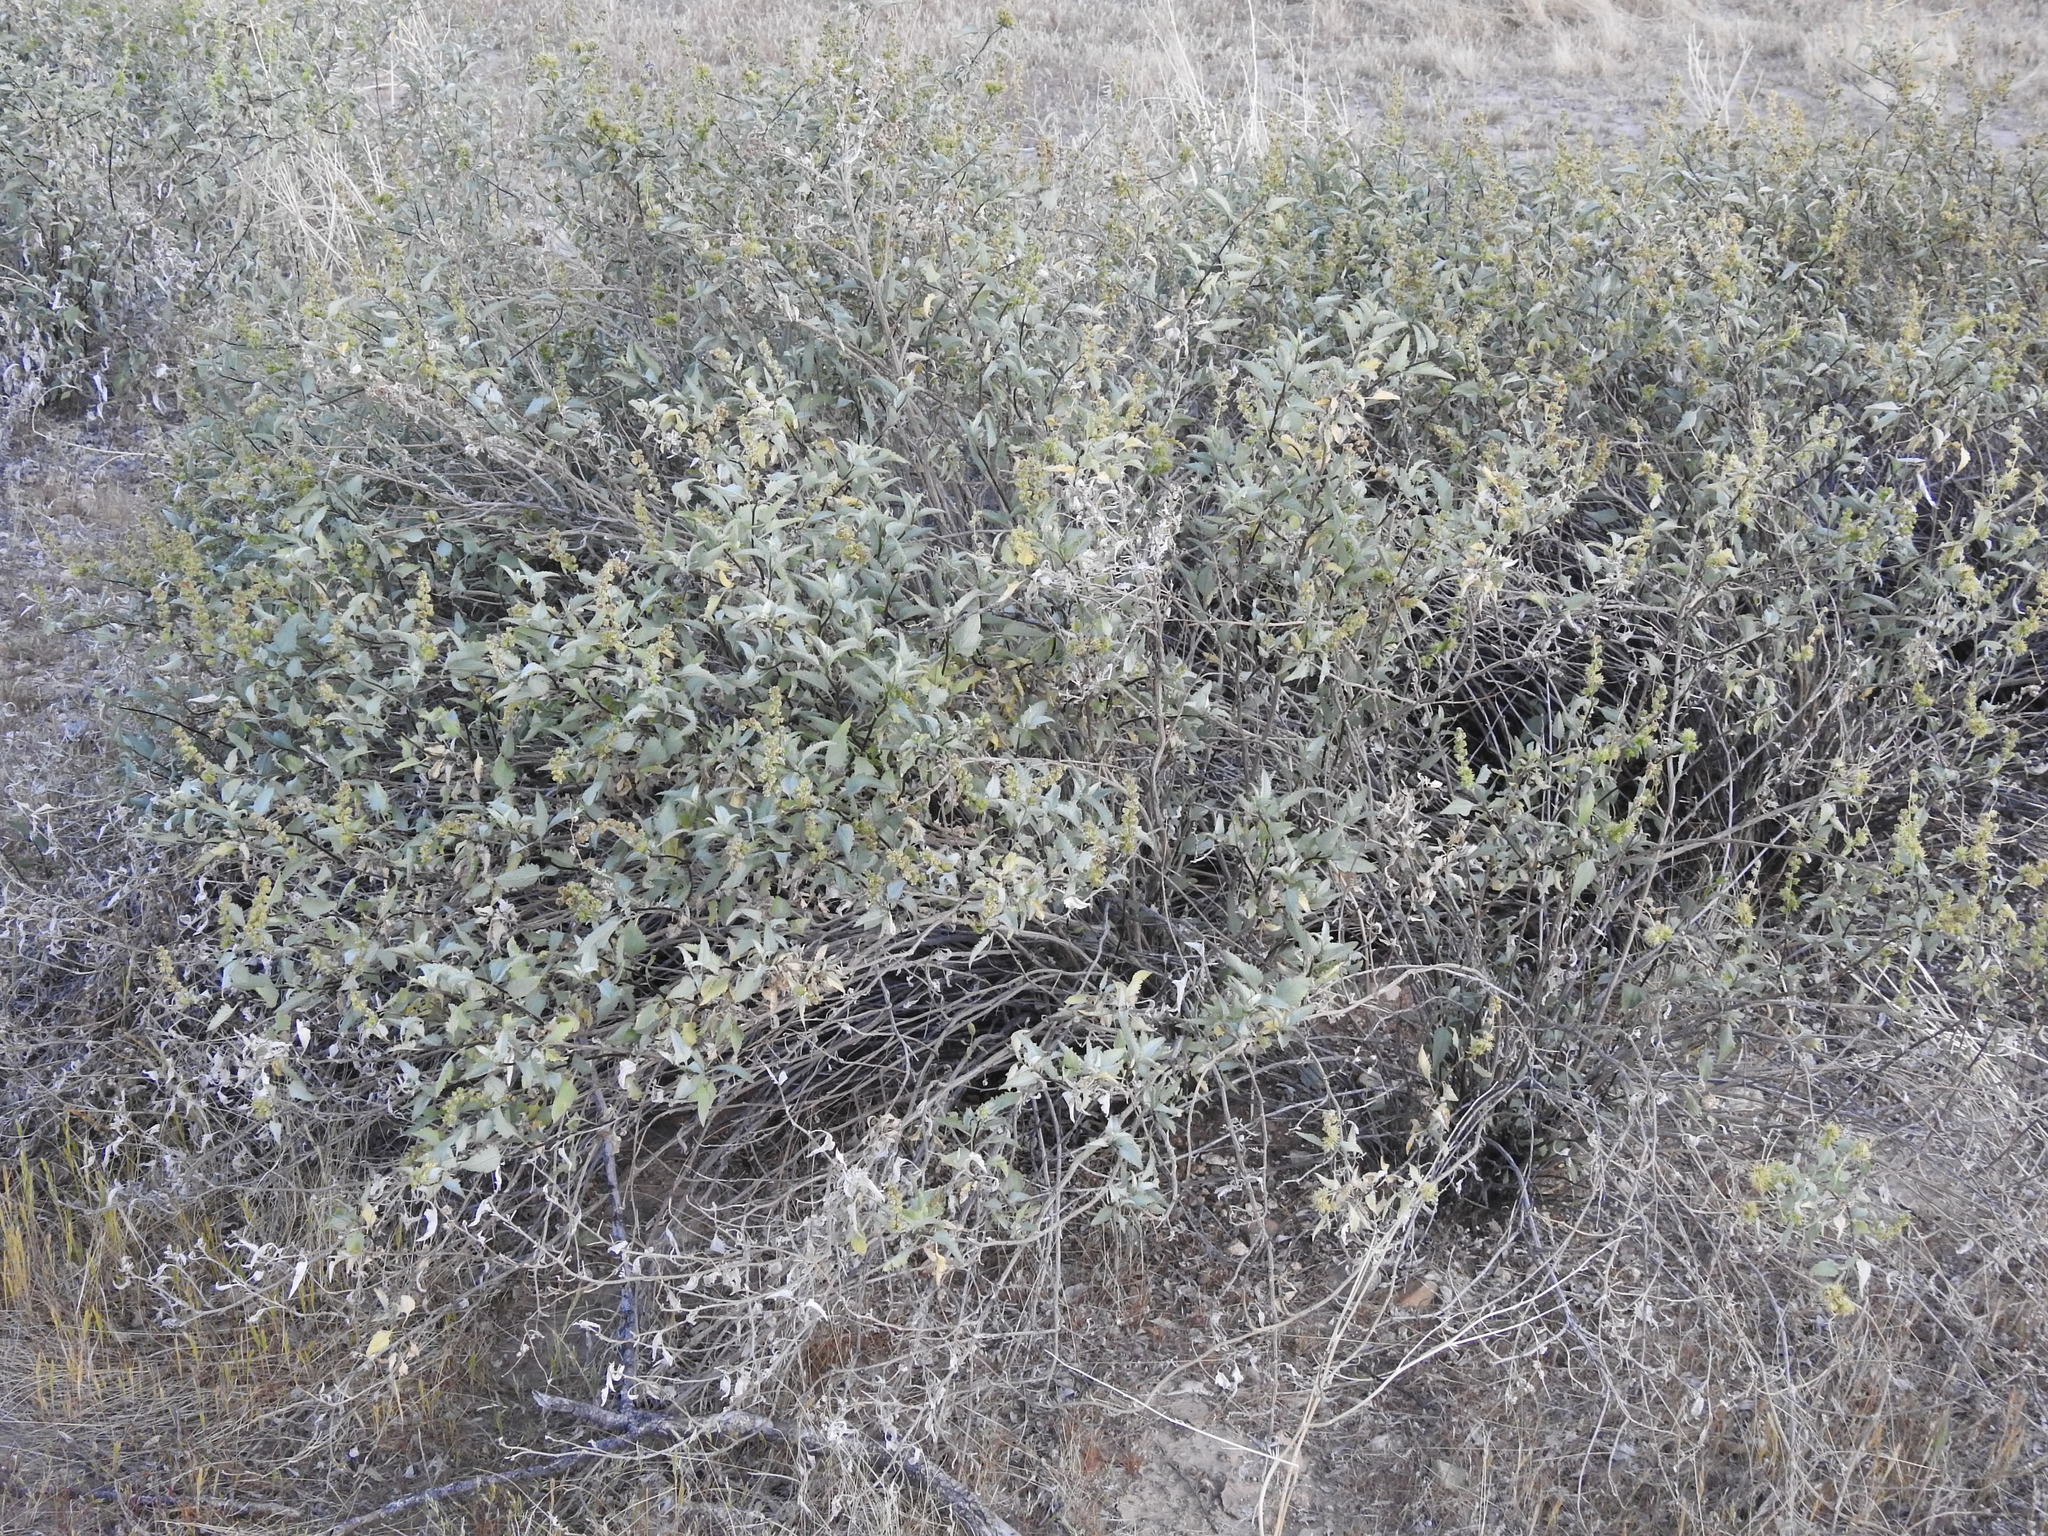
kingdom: Plantae
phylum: Tracheophyta
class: Magnoliopsida
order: Asterales
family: Asteraceae
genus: Ambrosia
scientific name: Ambrosia deltoidea
